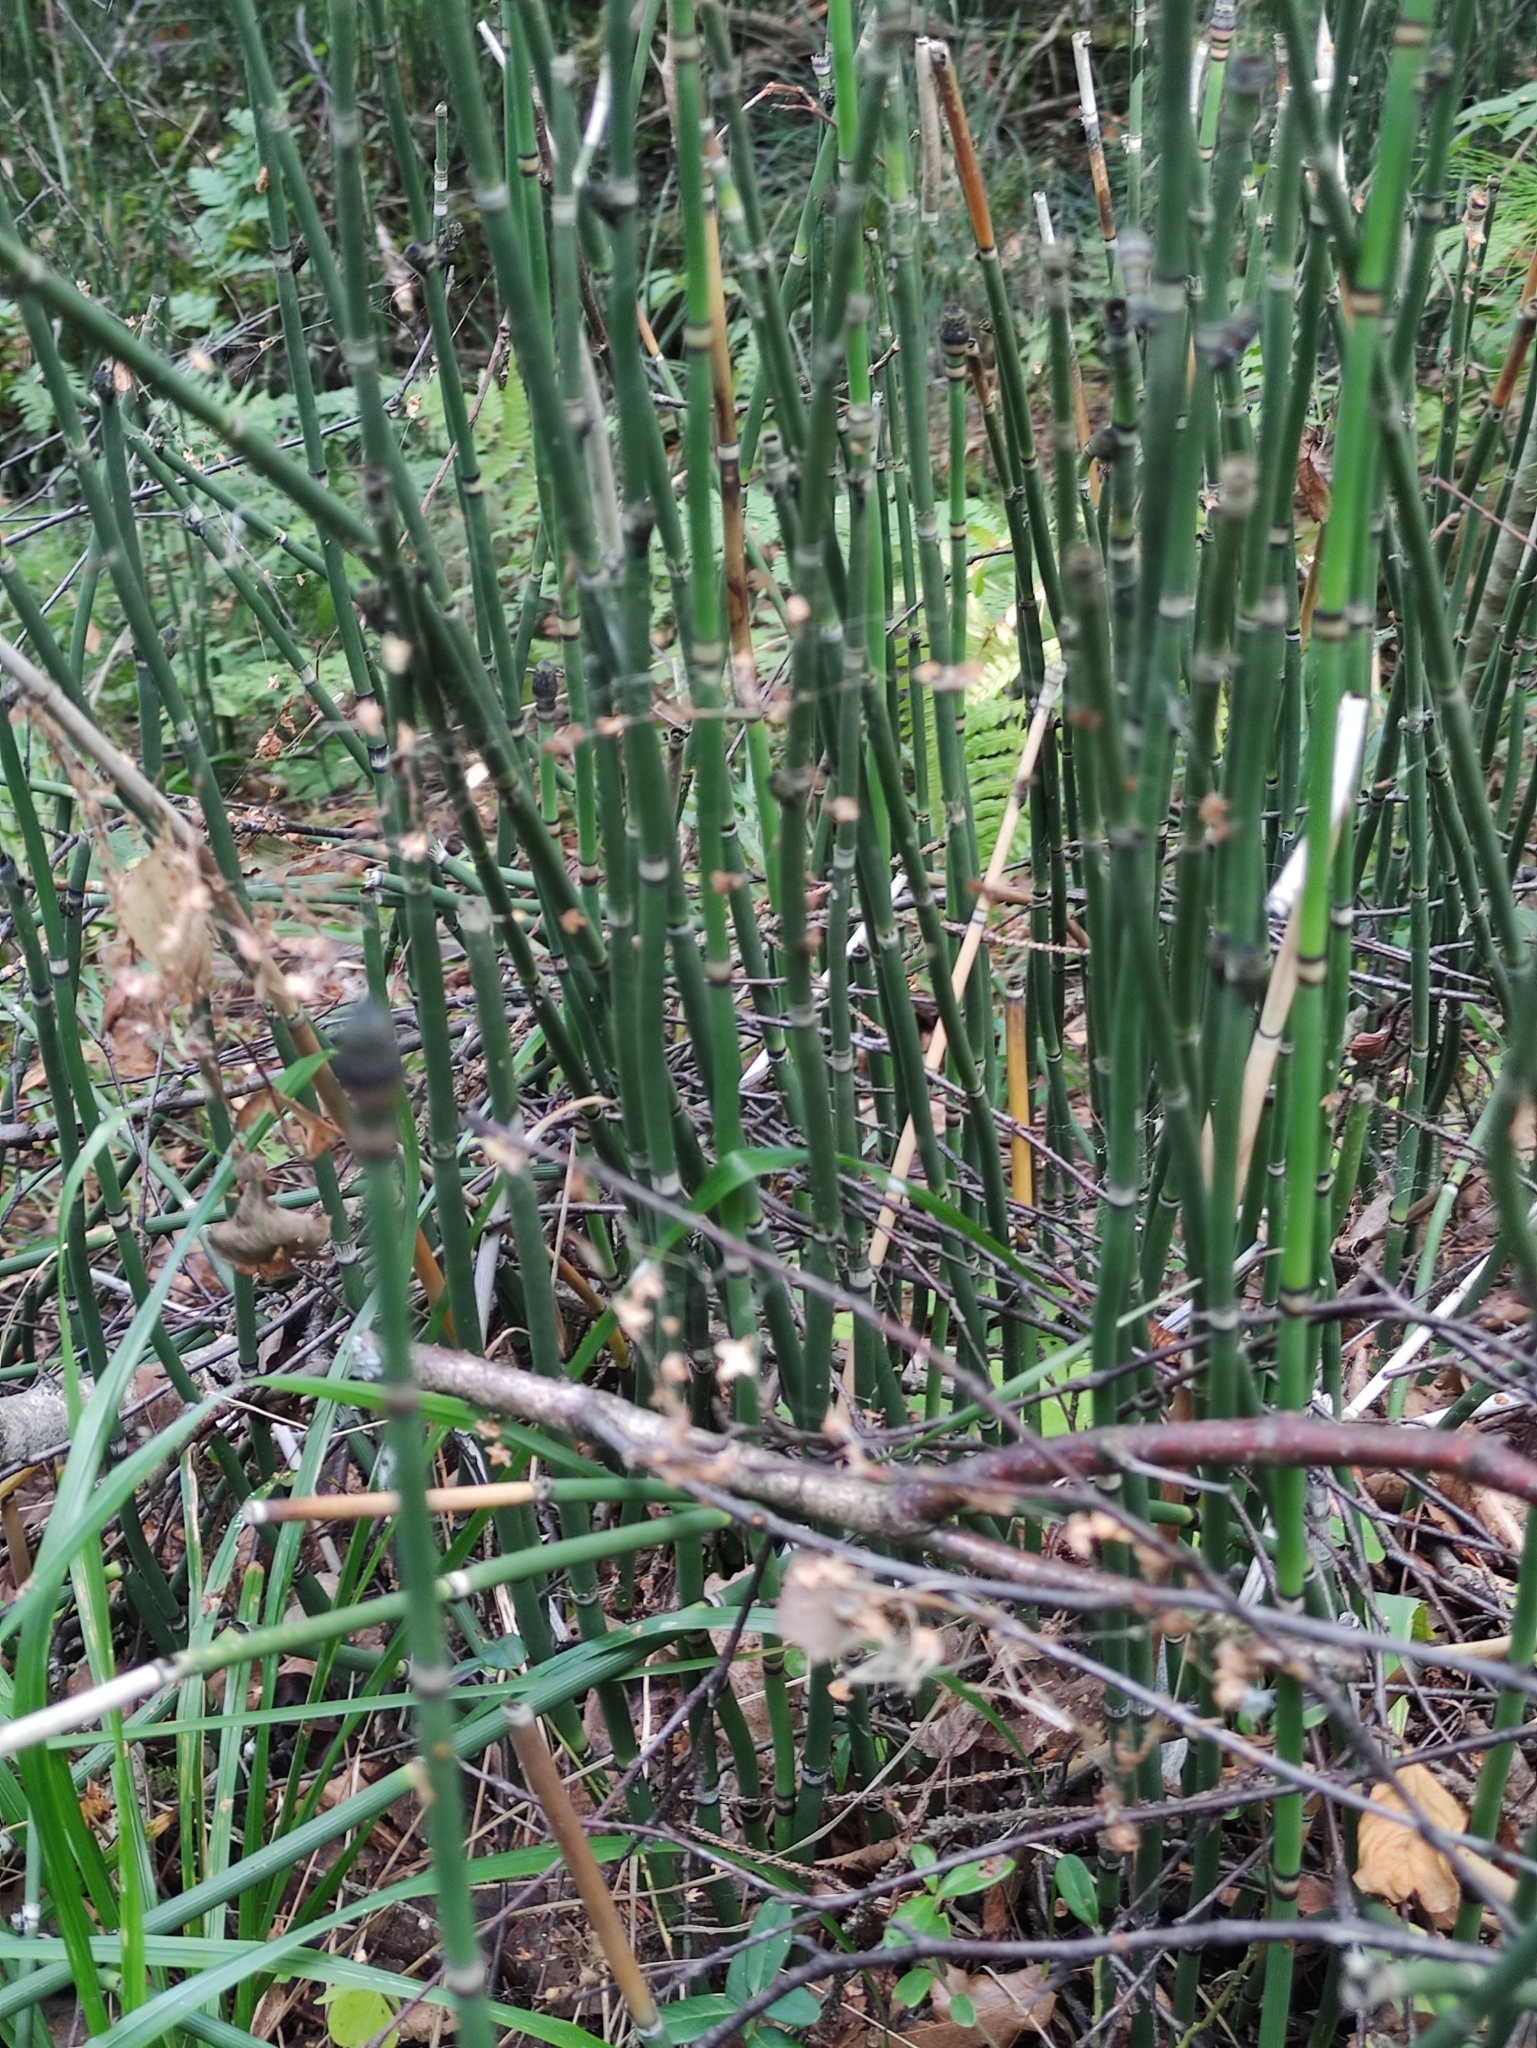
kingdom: Plantae
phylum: Tracheophyta
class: Polypodiopsida
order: Equisetales
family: Equisetaceae
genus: Equisetum
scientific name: Equisetum hyemale
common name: Rough horsetail
